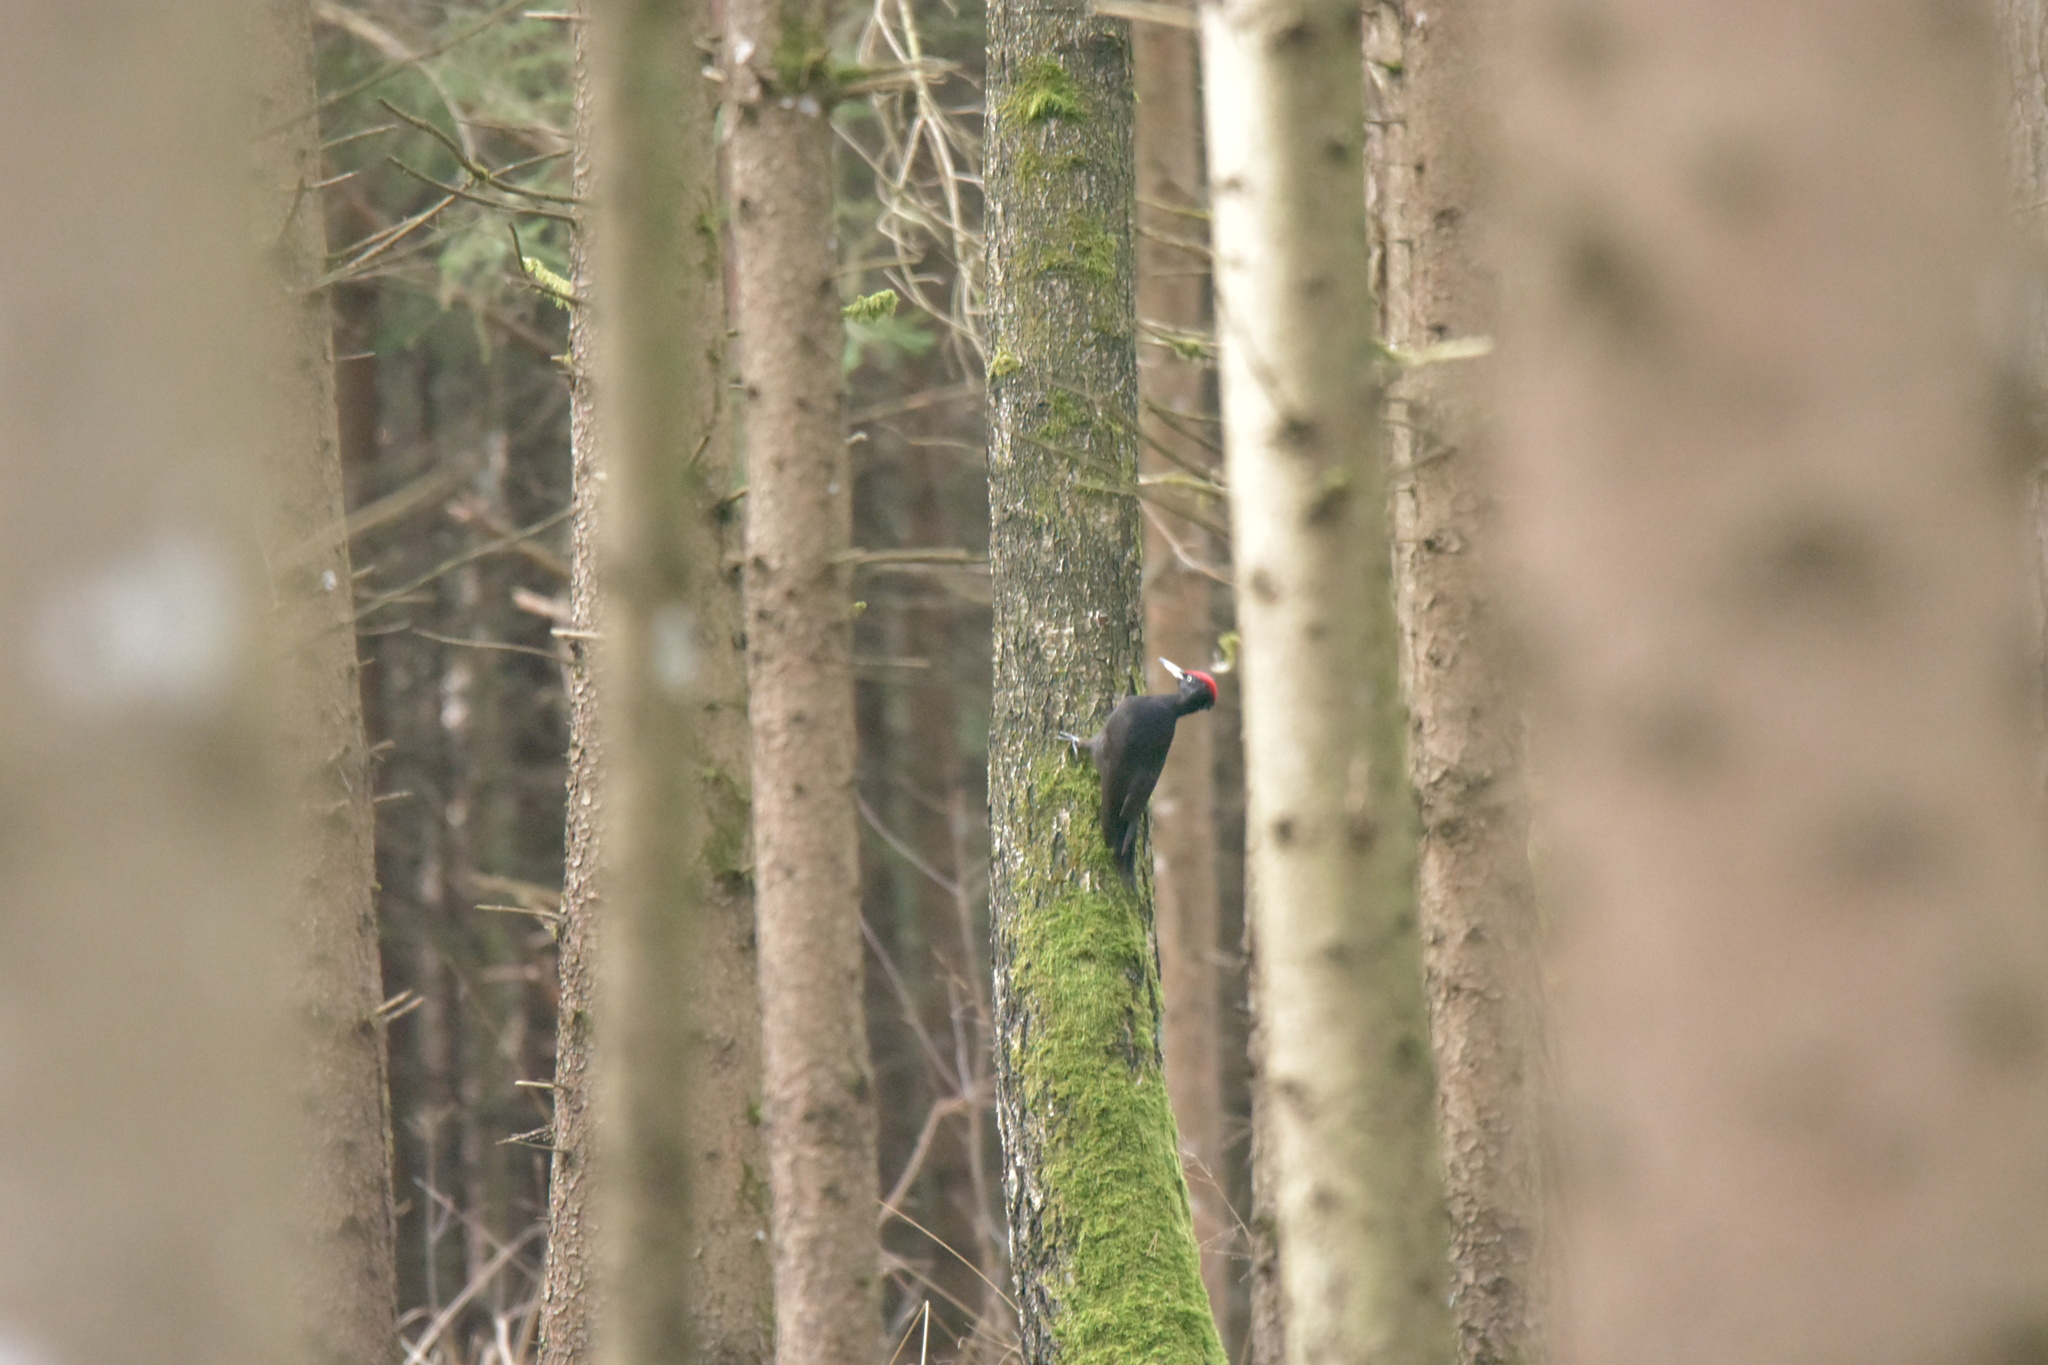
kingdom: Animalia
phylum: Chordata
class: Aves
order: Piciformes
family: Picidae
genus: Dryocopus
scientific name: Dryocopus martius
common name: Black woodpecker
